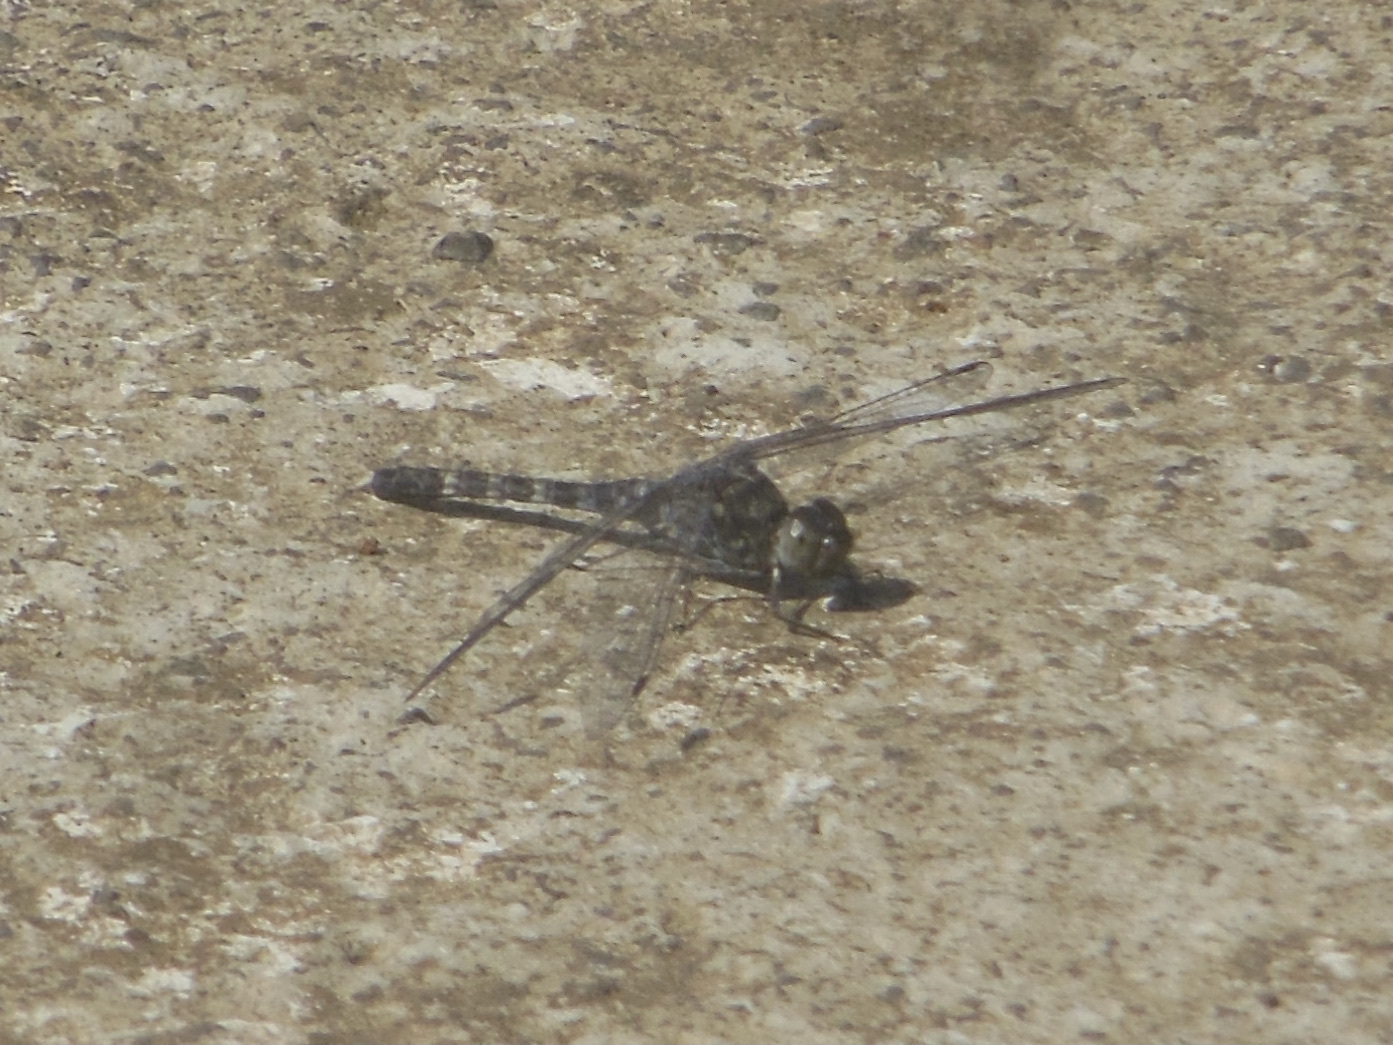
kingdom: Animalia
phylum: Arthropoda
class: Insecta
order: Odonata
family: Libellulidae
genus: Bradinopyga
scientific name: Bradinopyga geminata
